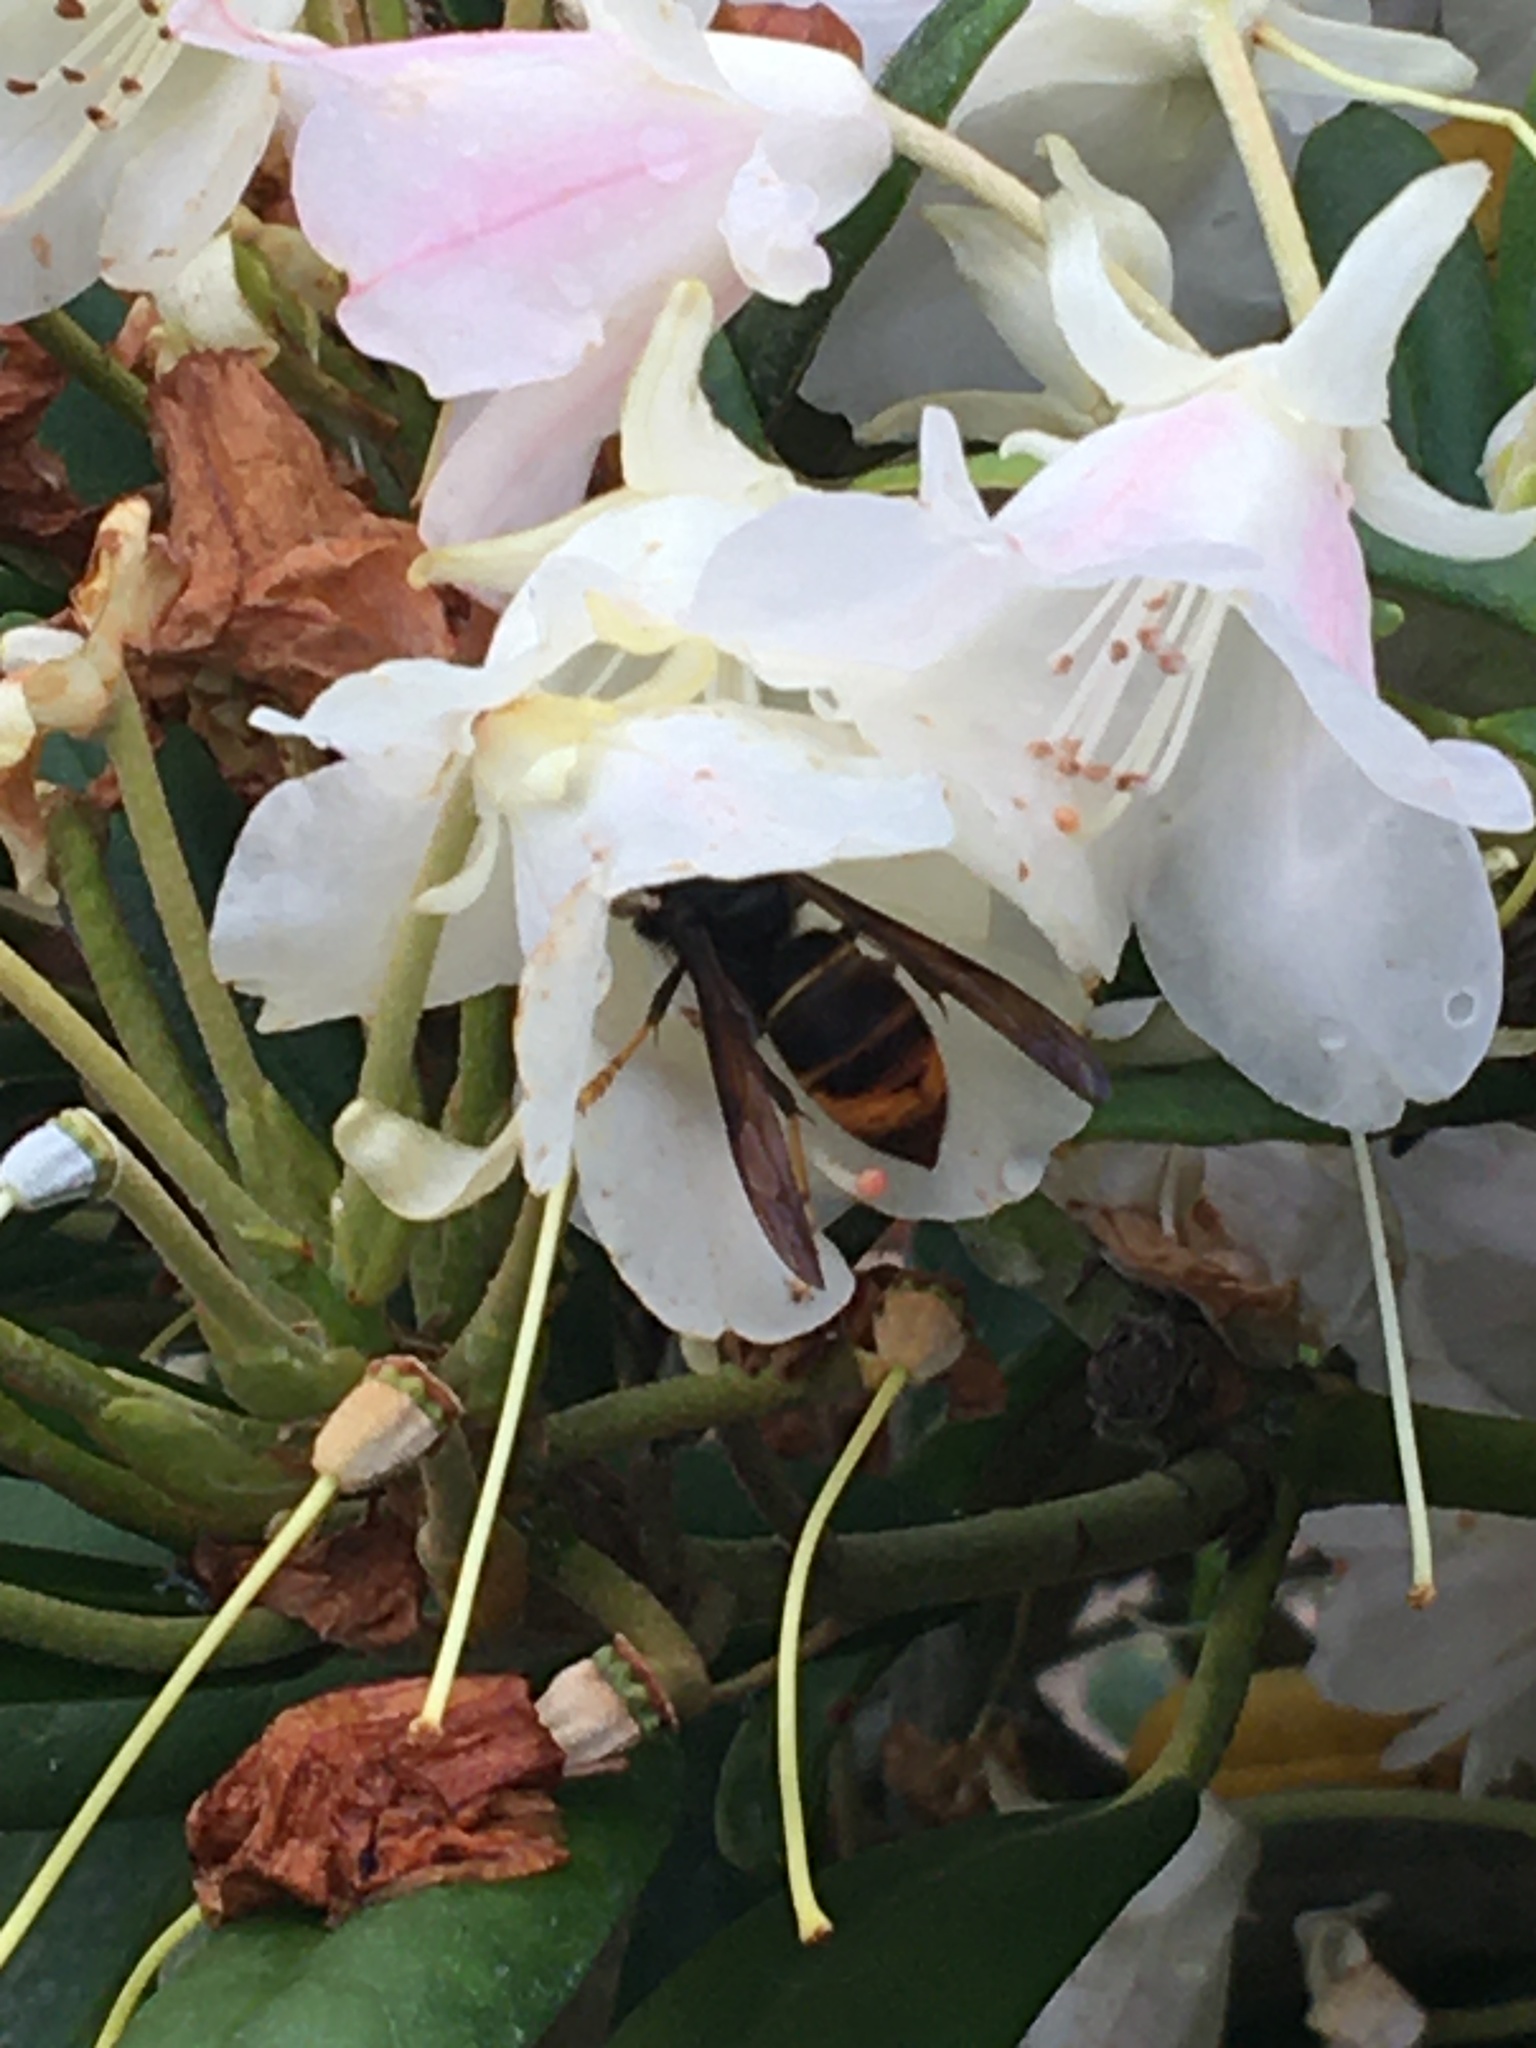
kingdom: Animalia
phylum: Arthropoda
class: Insecta
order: Hymenoptera
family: Vespidae
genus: Vespa
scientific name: Vespa velutina
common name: Asian hornet
